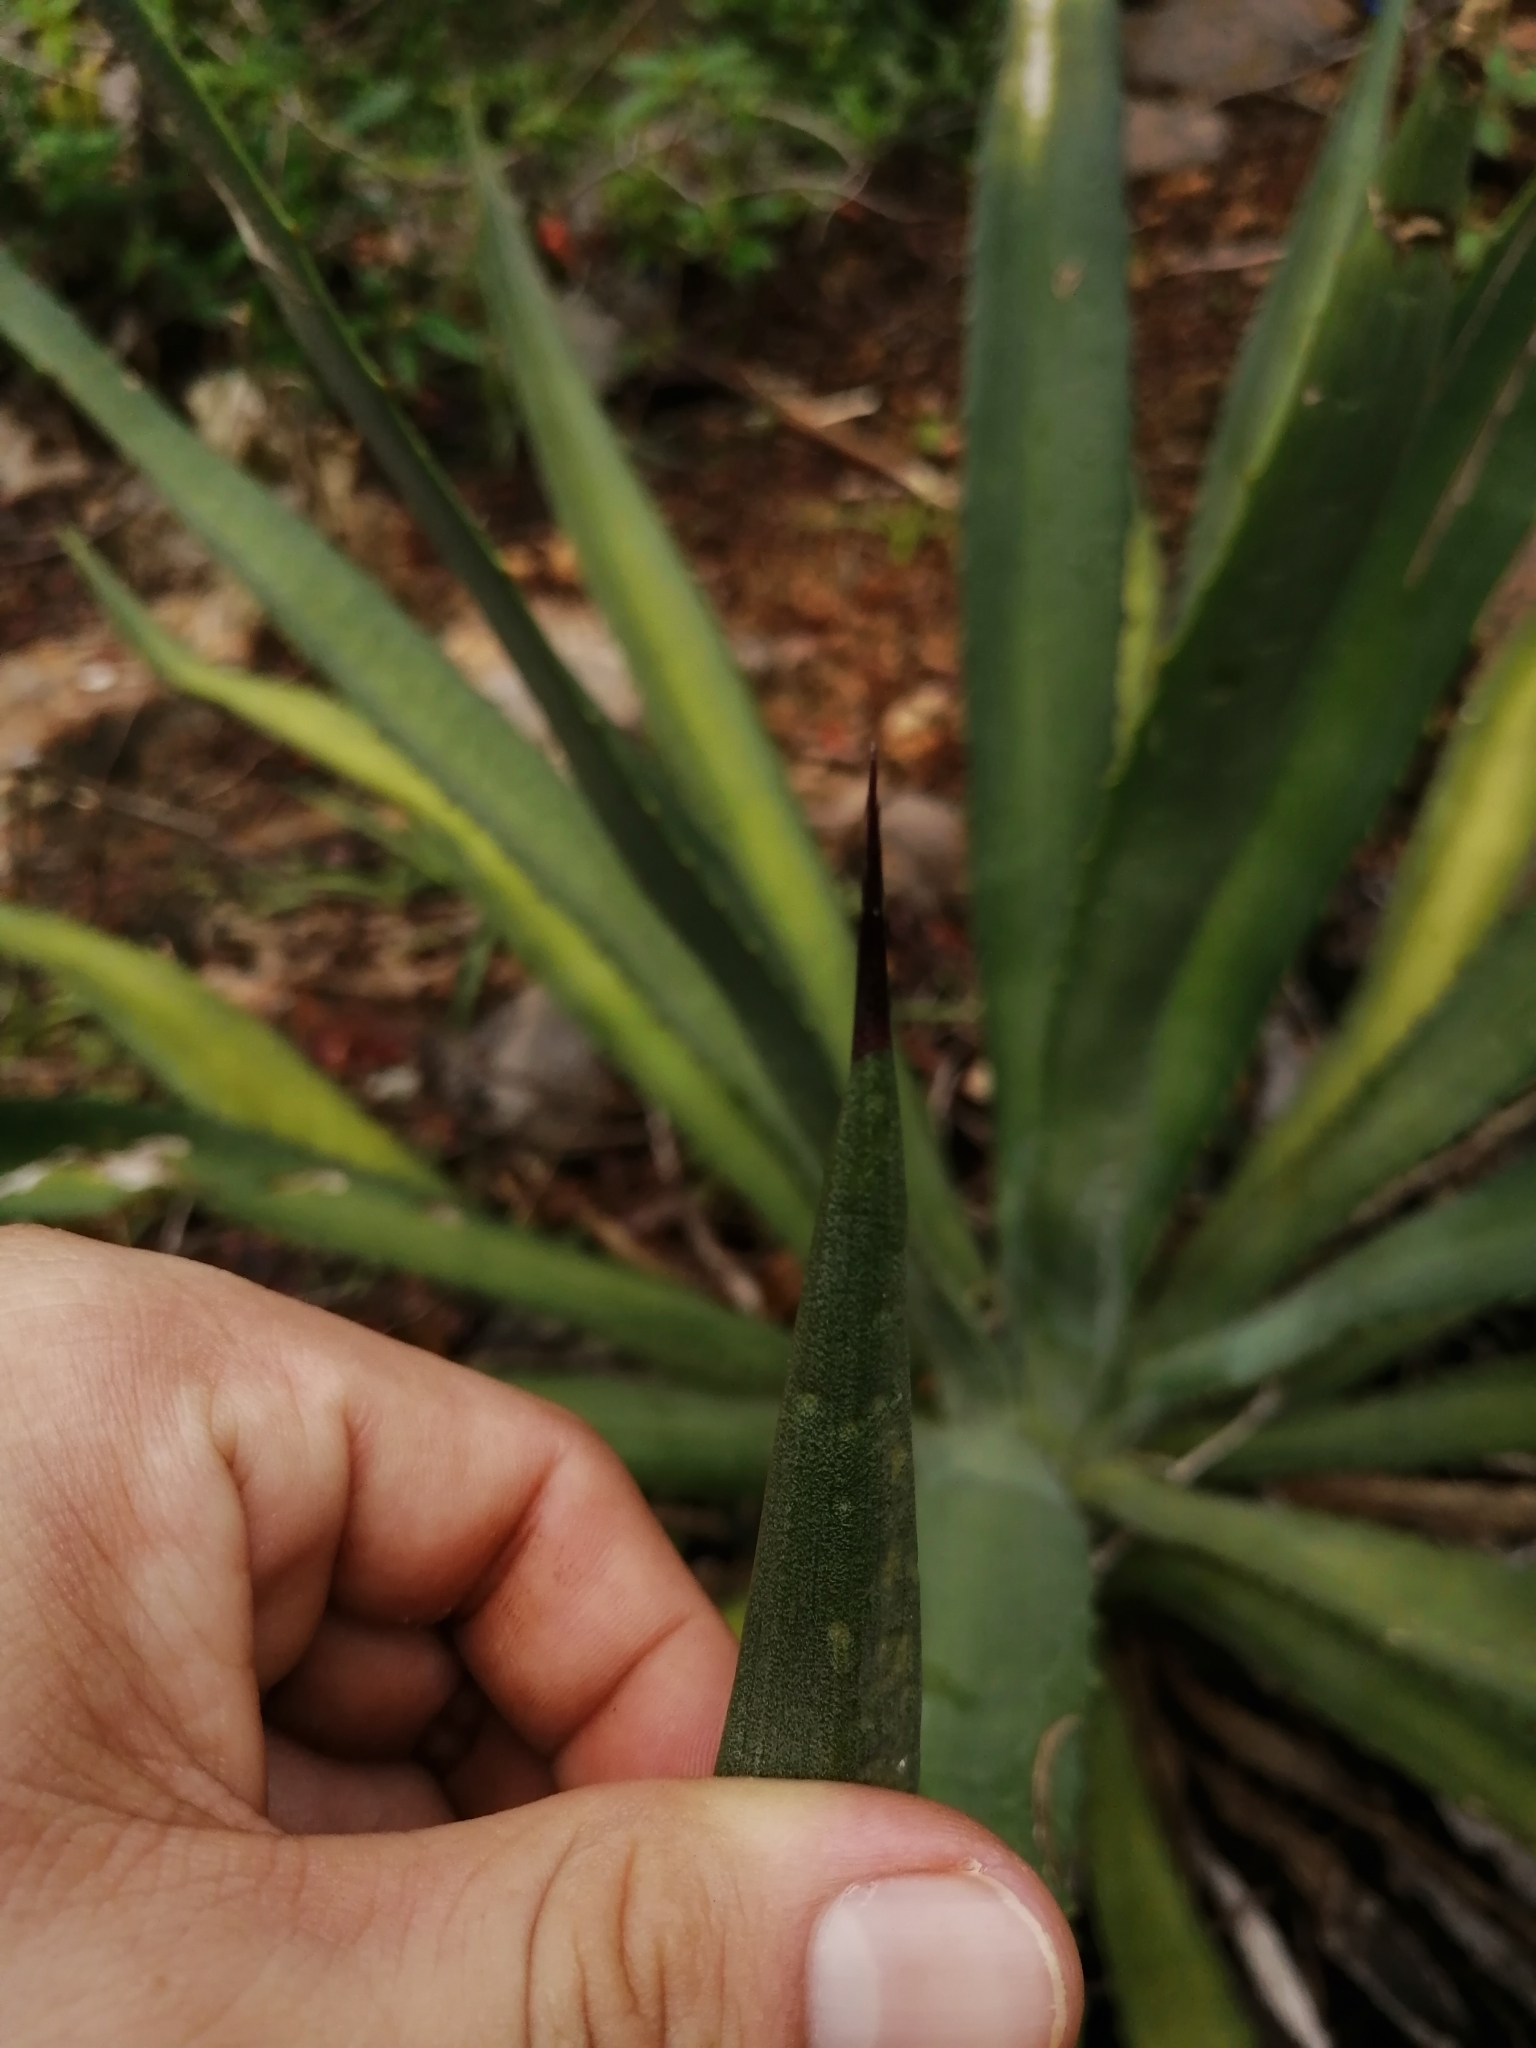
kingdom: Plantae
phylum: Tracheophyta
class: Liliopsida
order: Asparagales
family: Asparagaceae
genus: Agave
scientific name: Agave angustifolia
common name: Mescal agave
